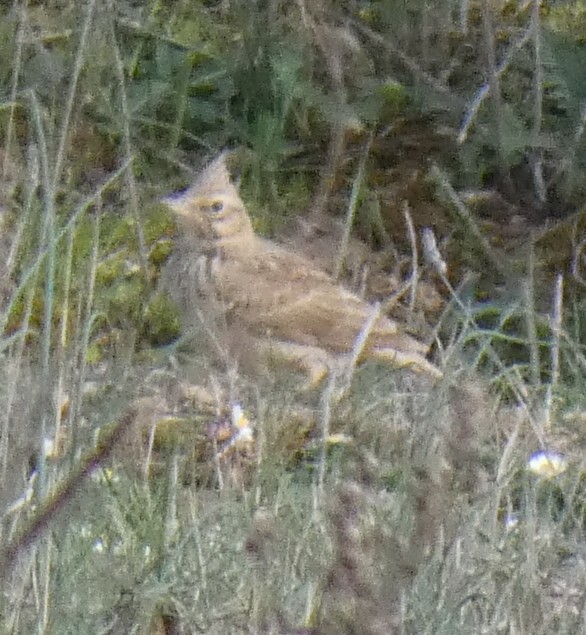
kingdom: Animalia
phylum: Chordata
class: Aves
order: Passeriformes
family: Alaudidae
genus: Galerida
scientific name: Galerida theklae
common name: Thekla lark
